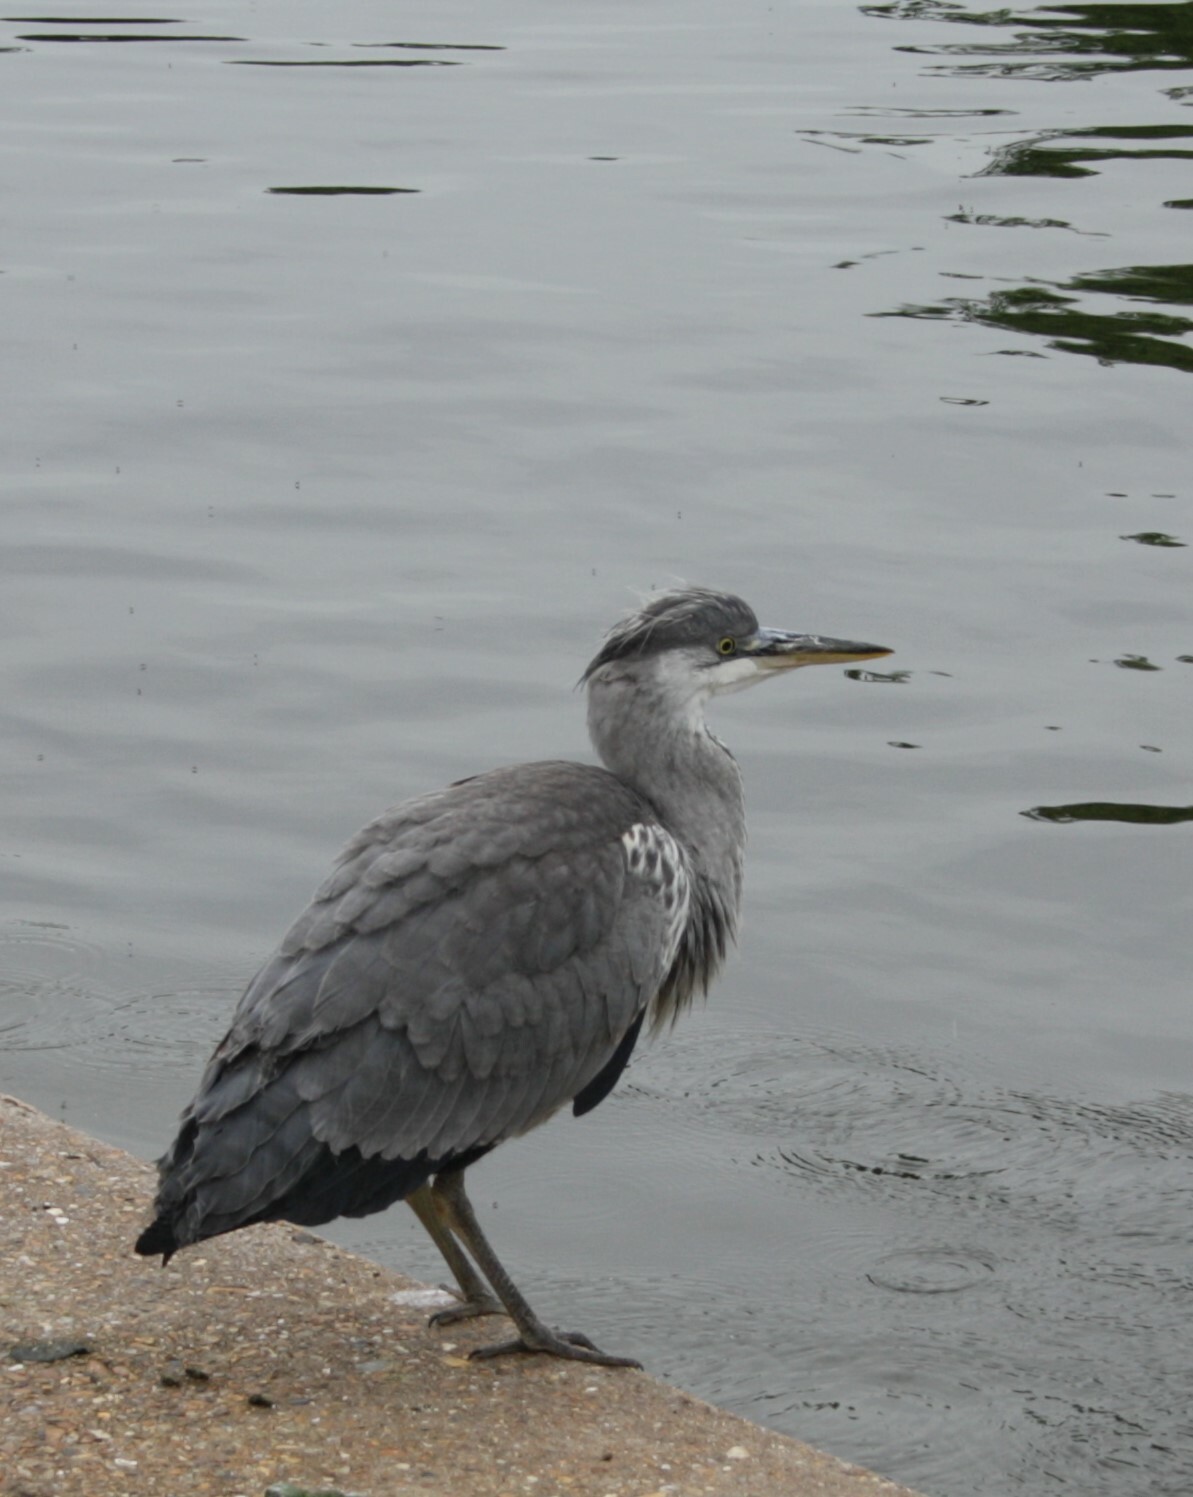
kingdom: Animalia
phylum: Chordata
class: Aves
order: Pelecaniformes
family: Ardeidae
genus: Ardea
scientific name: Ardea cinerea
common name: Grey heron
